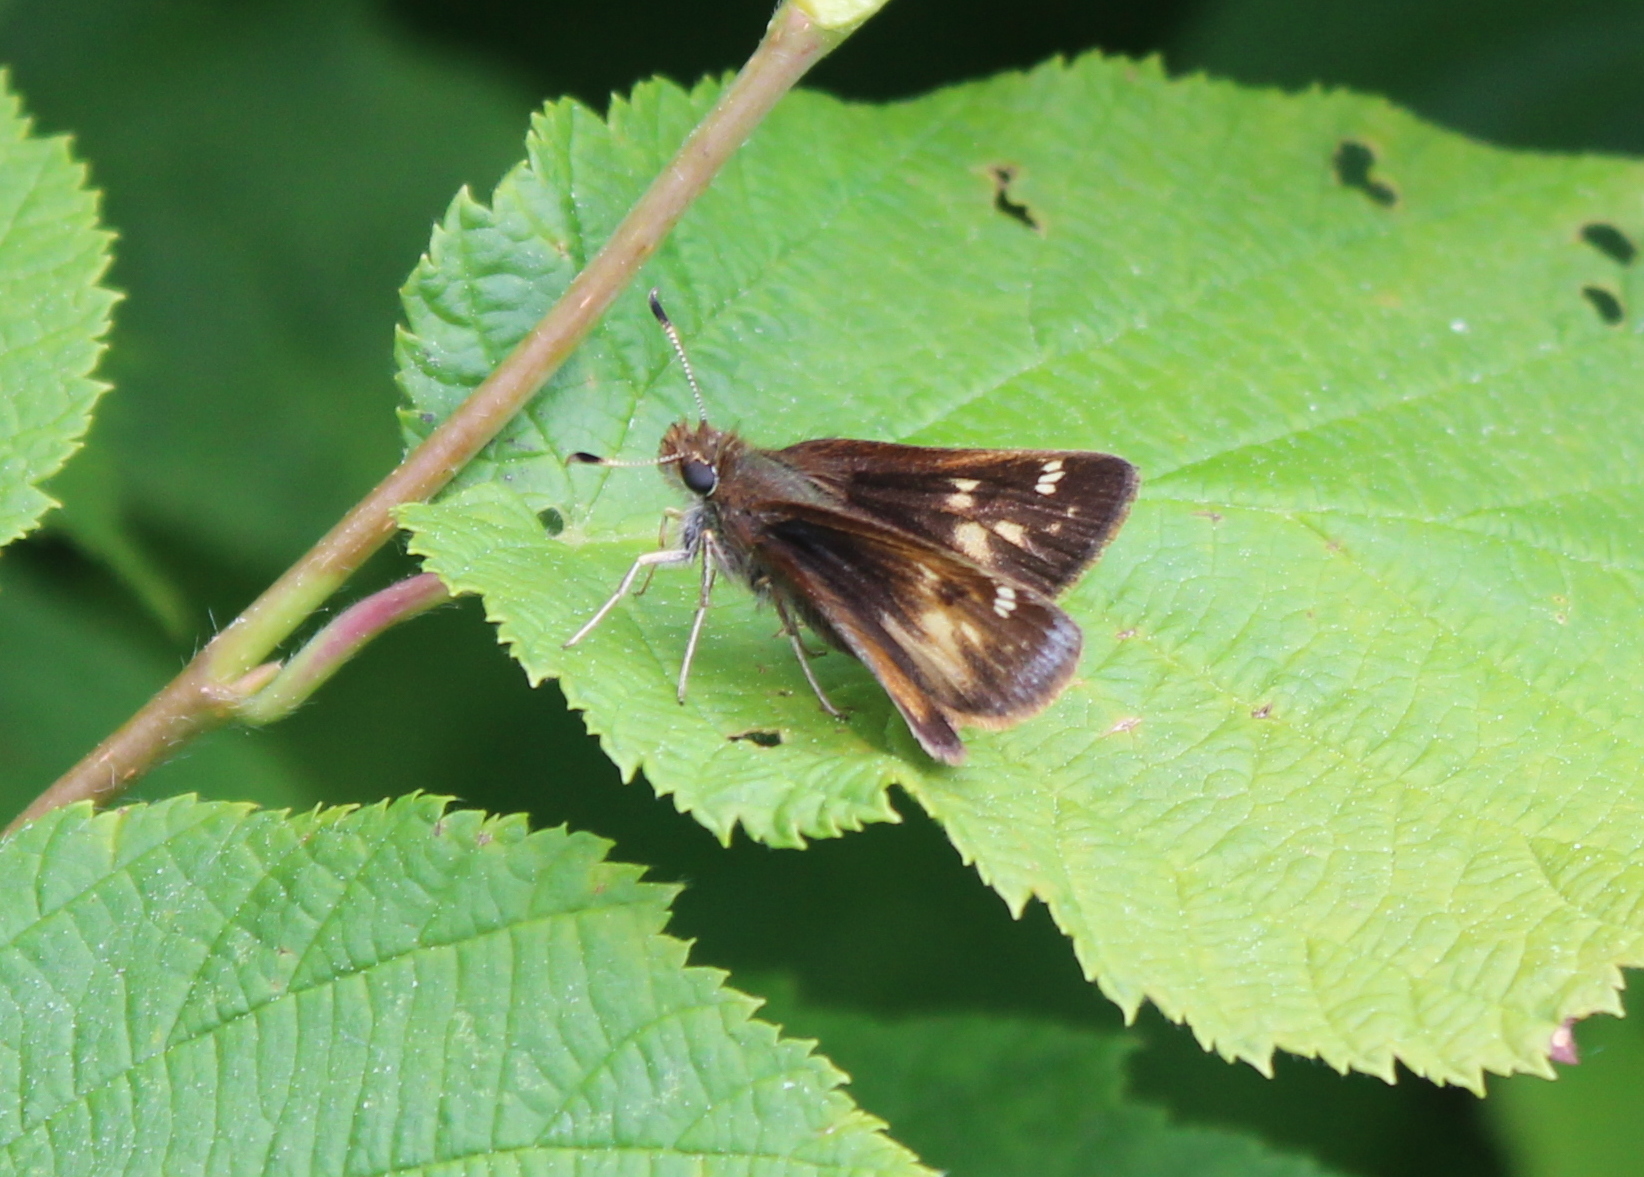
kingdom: Animalia
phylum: Arthropoda
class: Insecta
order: Lepidoptera
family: Hesperiidae
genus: Lon
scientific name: Lon hobomok
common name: Hobomok skipper
